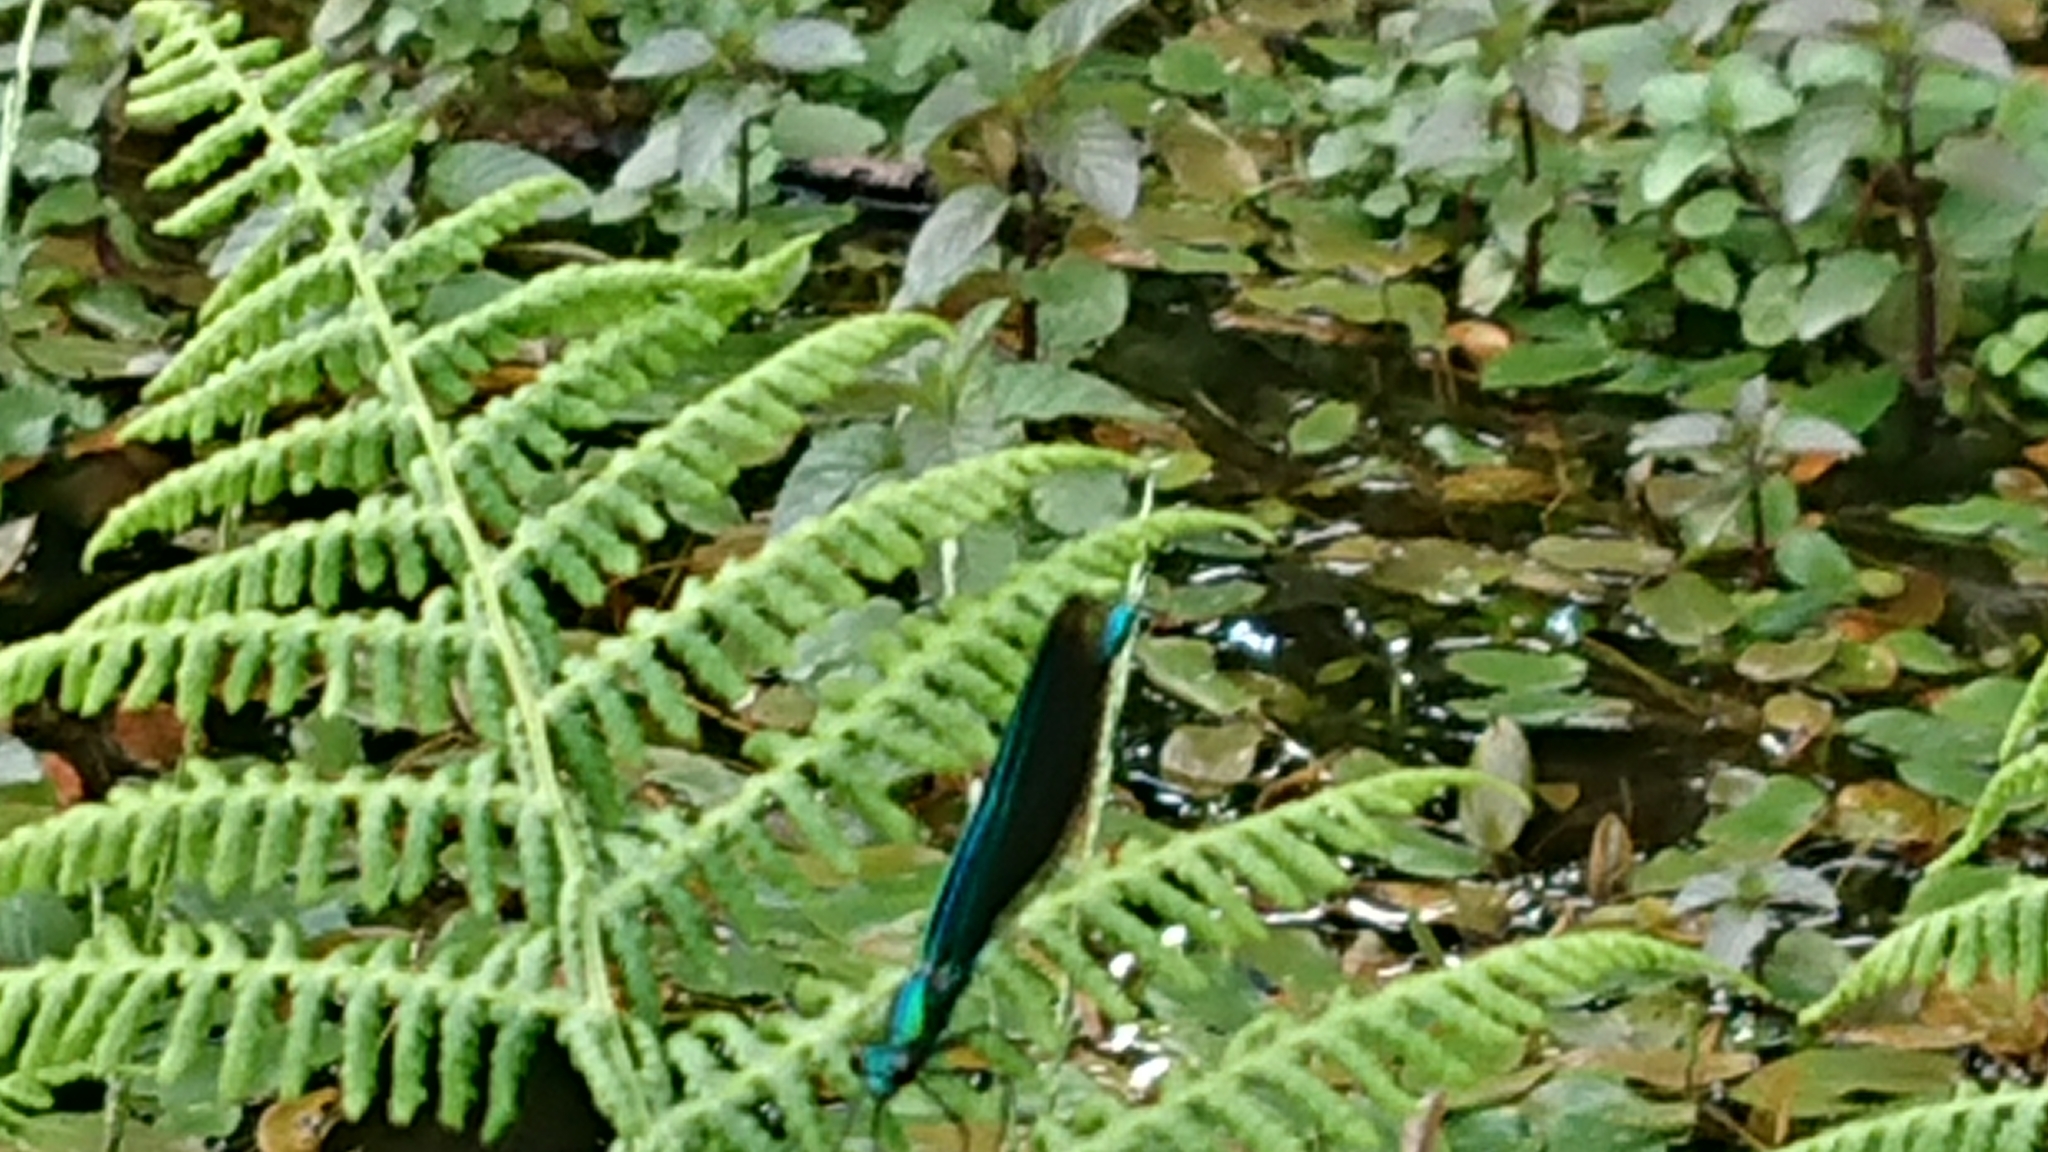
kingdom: Animalia
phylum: Arthropoda
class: Insecta
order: Odonata
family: Calopterygidae
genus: Calopteryx
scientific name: Calopteryx virgo
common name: Beautiful demoiselle
